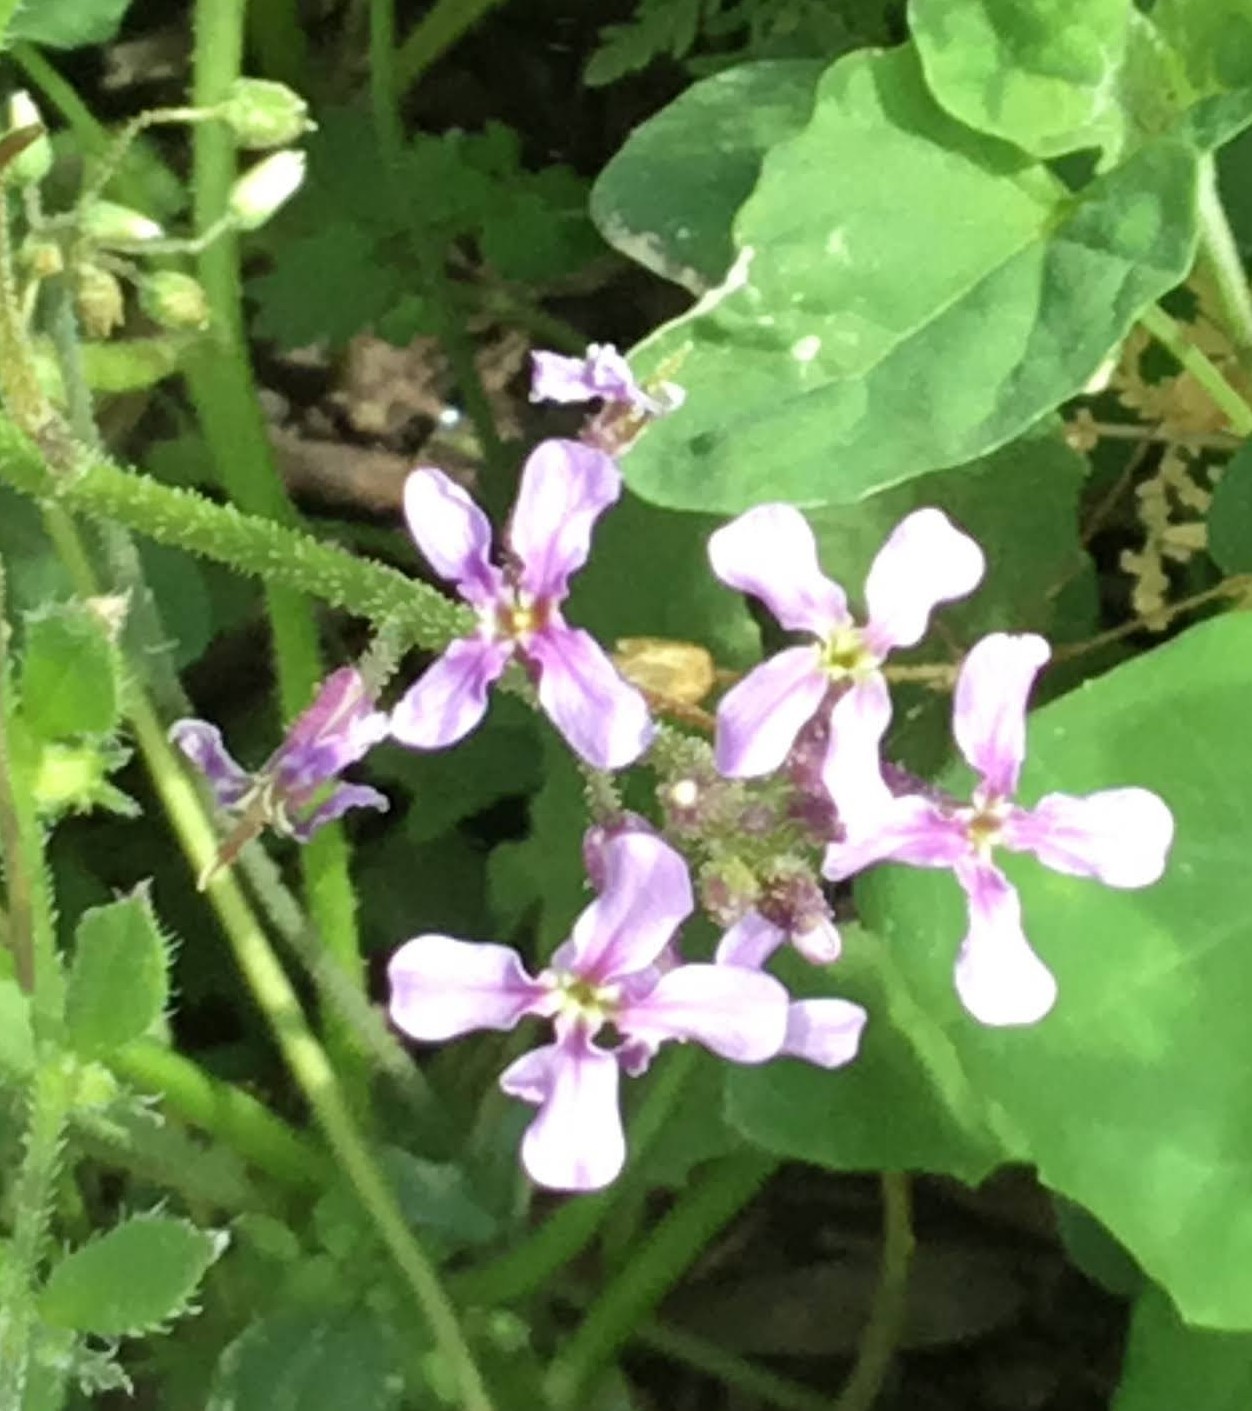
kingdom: Plantae
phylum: Tracheophyta
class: Magnoliopsida
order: Brassicales
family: Brassicaceae
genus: Chorispora
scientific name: Chorispora tenella
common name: Crossflower
